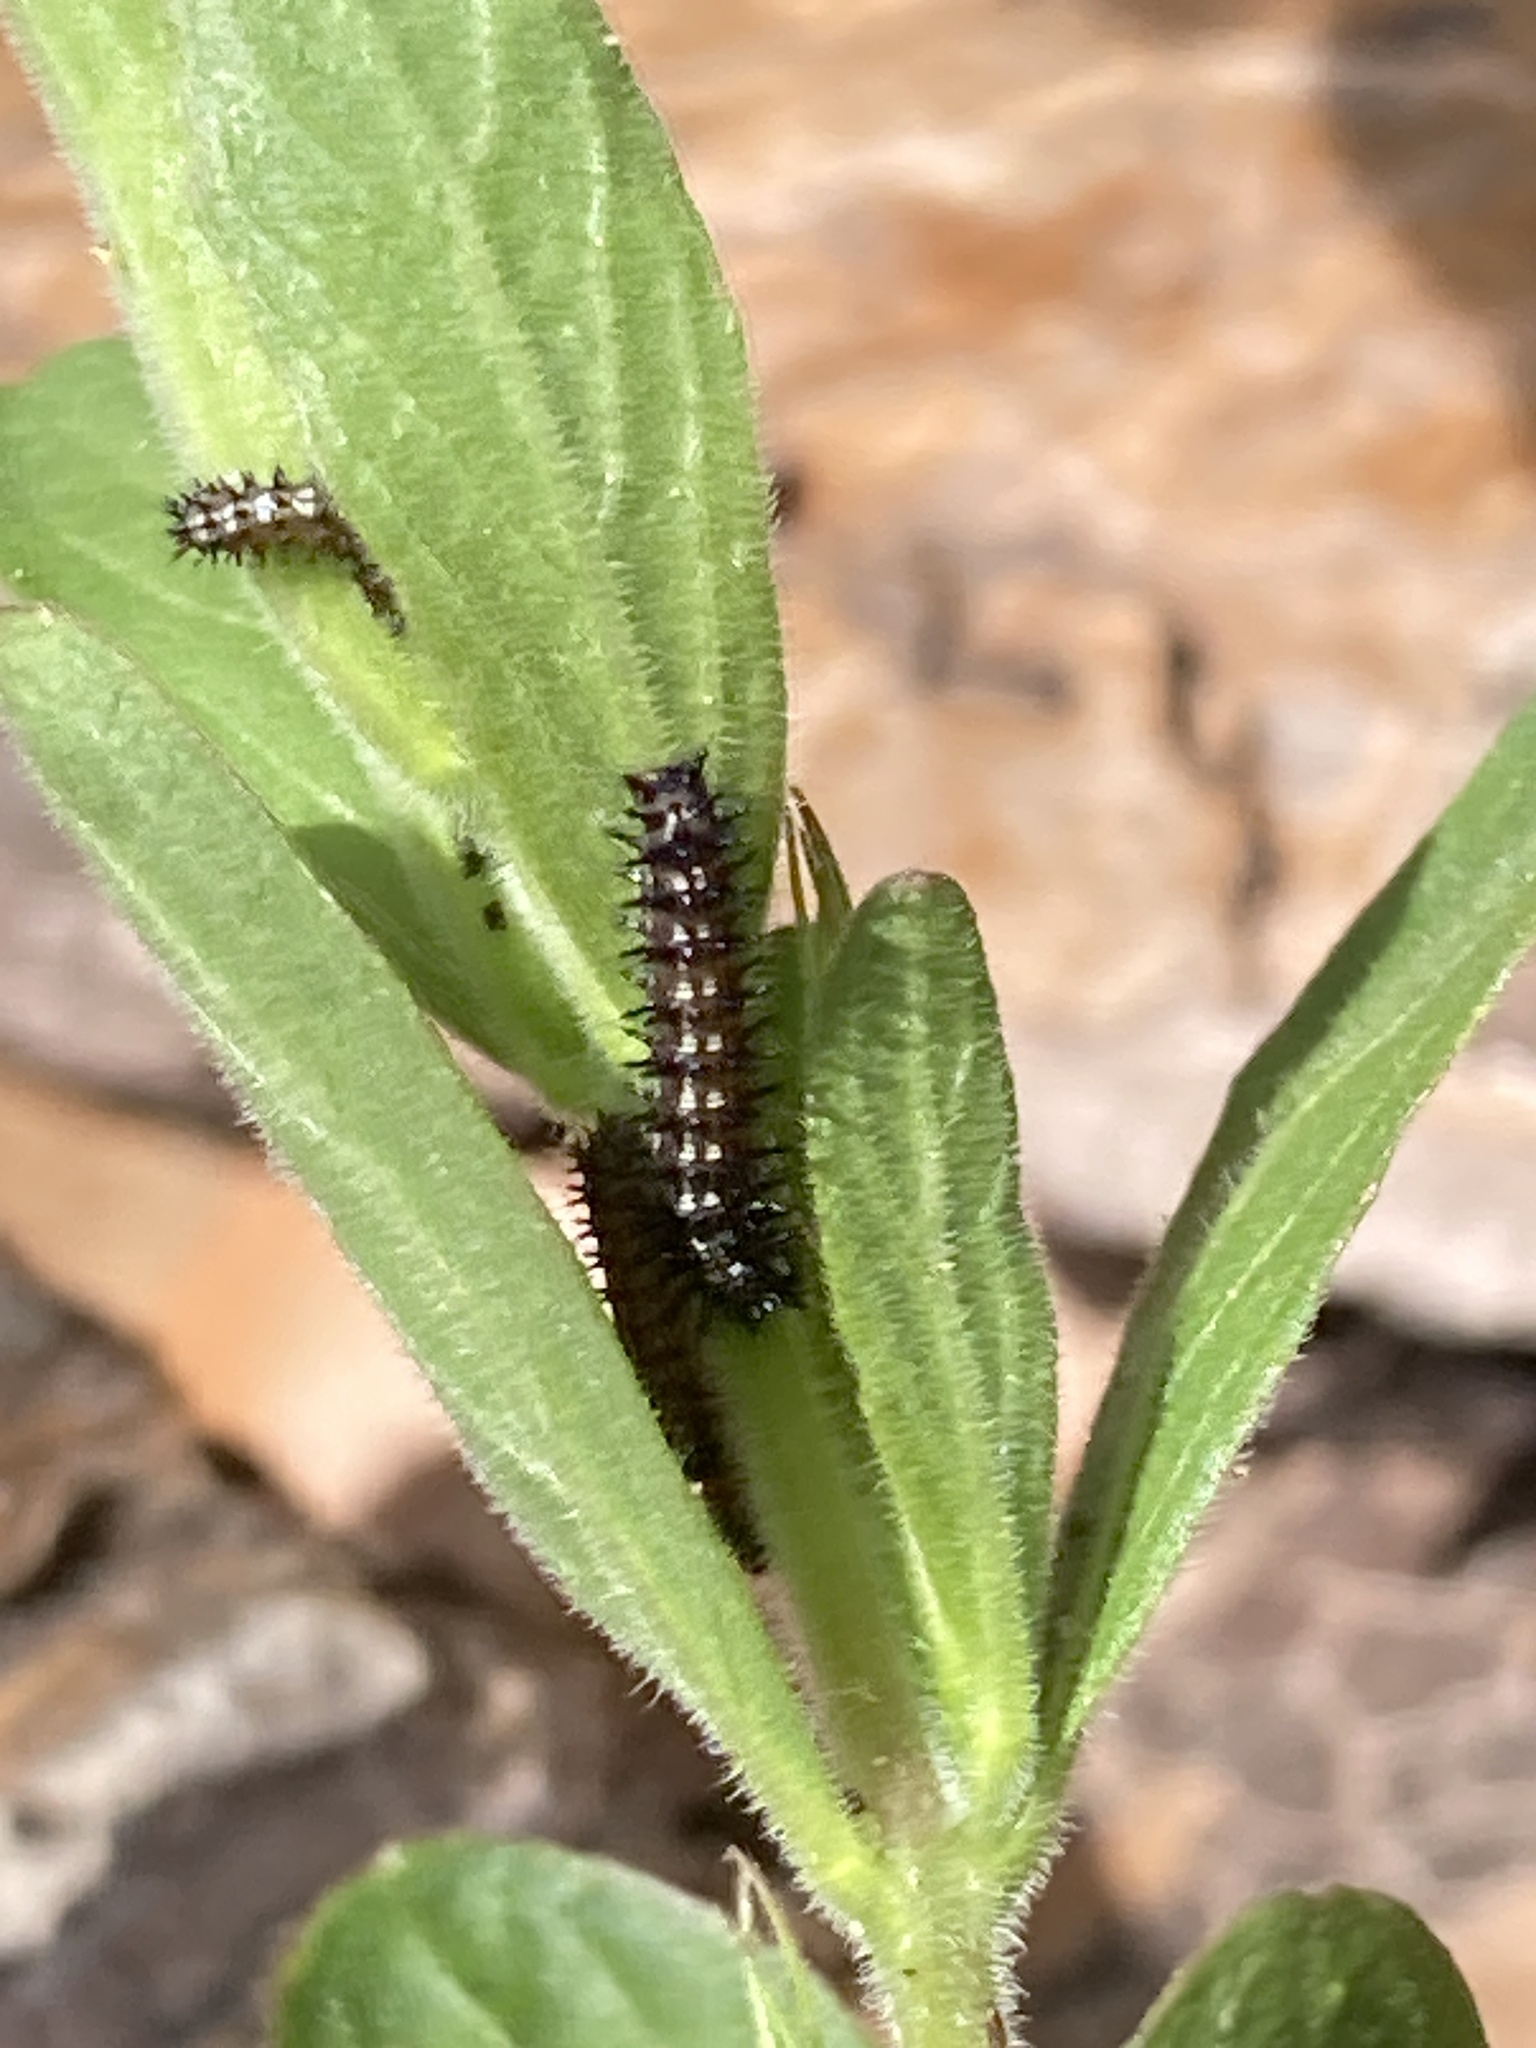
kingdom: Animalia
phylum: Arthropoda
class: Insecta
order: Lepidoptera
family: Nymphalidae
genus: Junonia
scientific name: Junonia coenia
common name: Common buckeye
